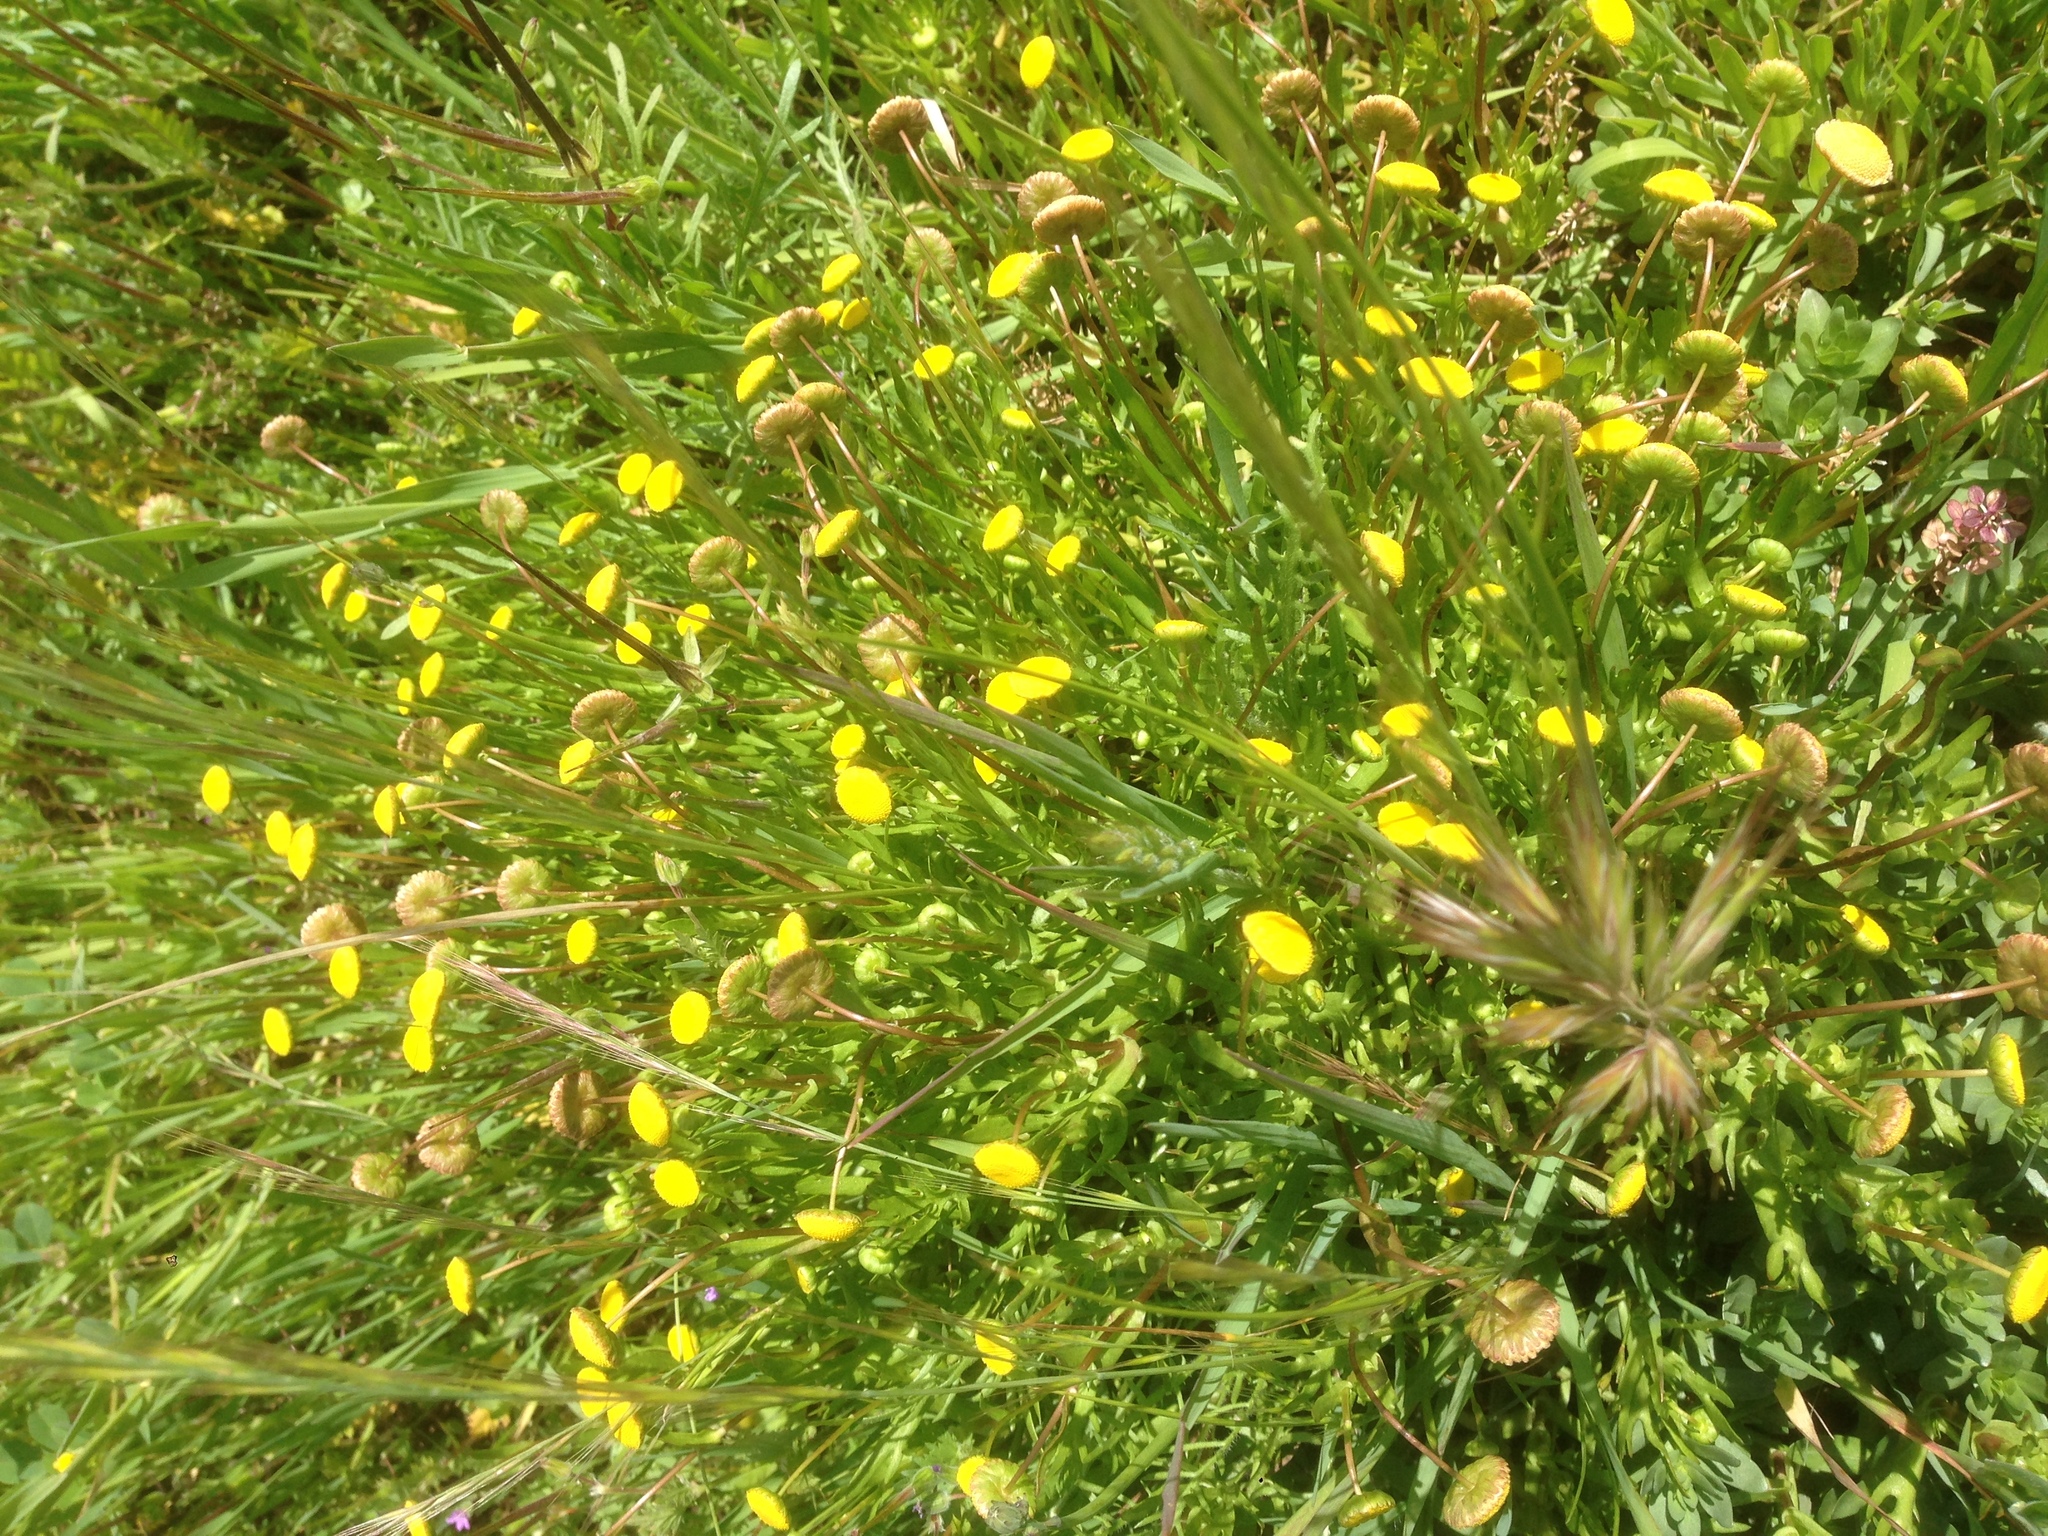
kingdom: Plantae
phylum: Tracheophyta
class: Magnoliopsida
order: Asterales
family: Asteraceae
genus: Cotula
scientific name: Cotula coronopifolia
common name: Buttonweed
